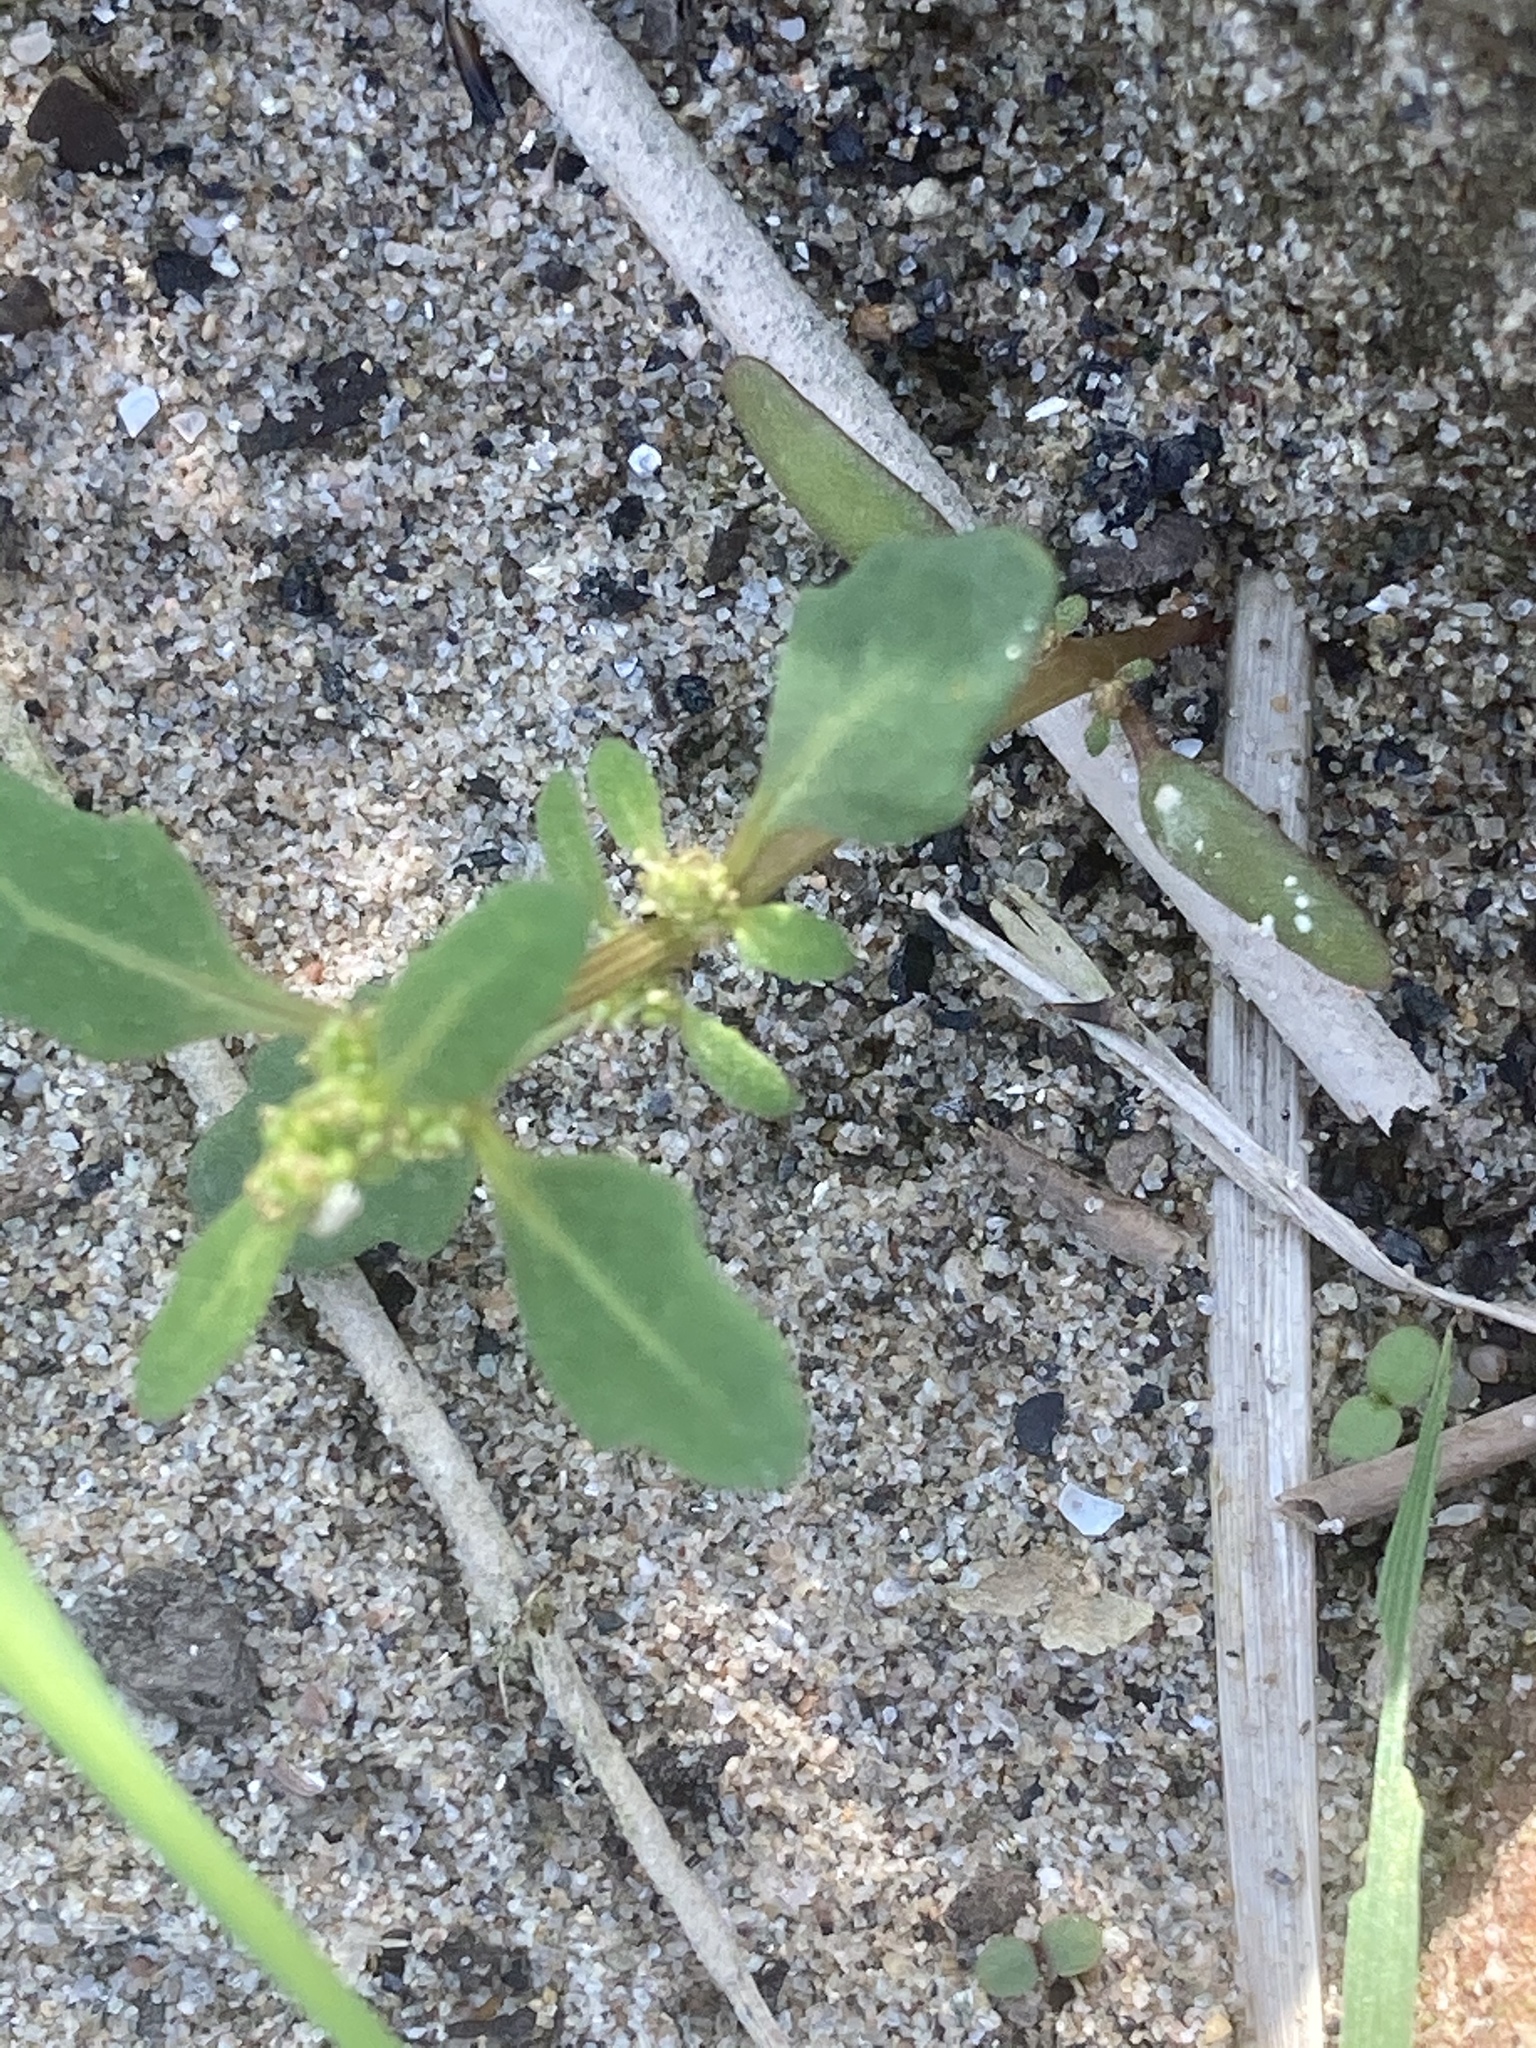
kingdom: Plantae
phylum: Tracheophyta
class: Magnoliopsida
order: Caryophyllales
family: Amaranthaceae
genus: Oxybasis
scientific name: Oxybasis glauca
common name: Glaucous goosefoot
